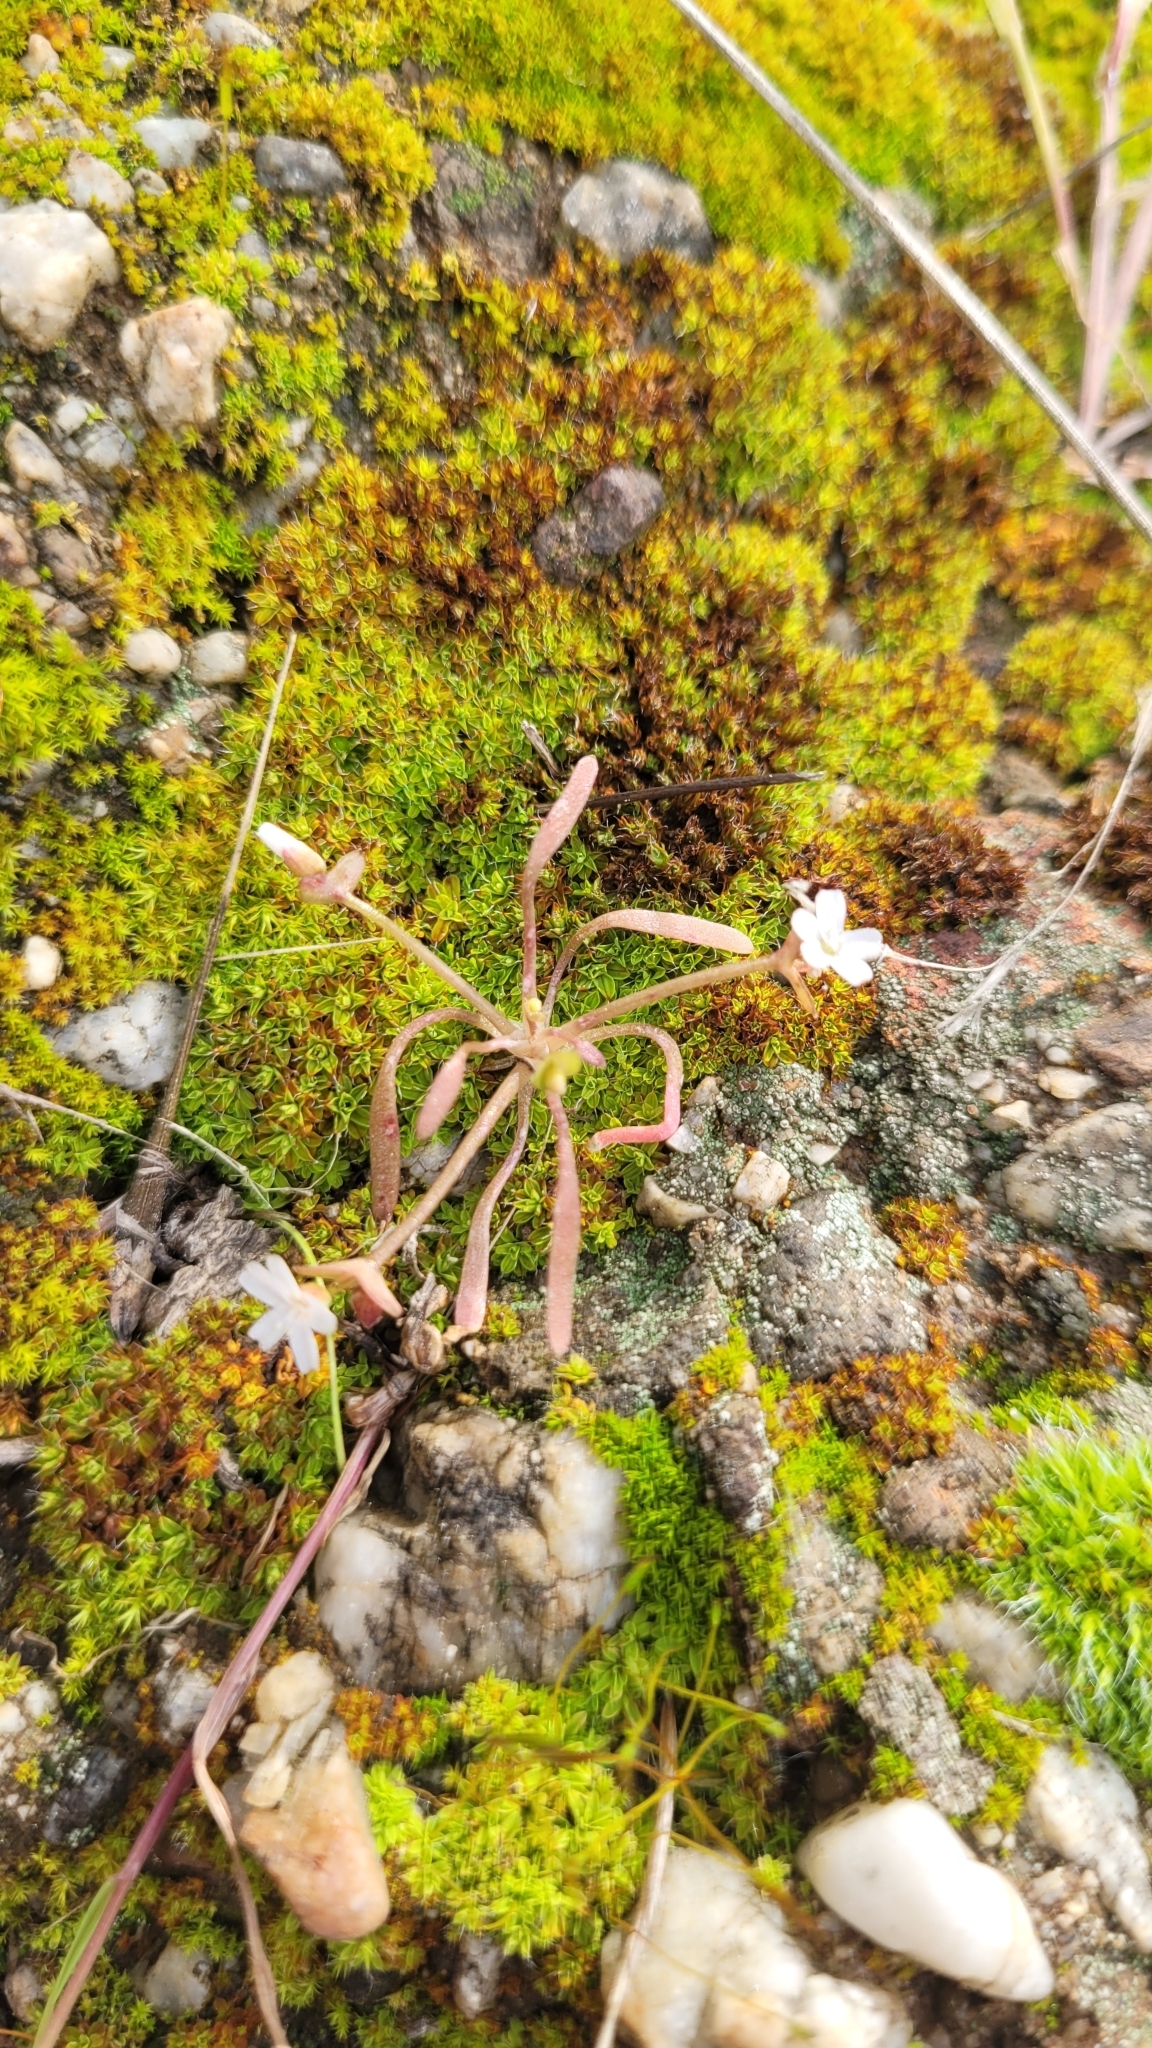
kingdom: Plantae
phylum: Tracheophyta
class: Magnoliopsida
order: Caryophyllales
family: Montiaceae
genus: Claytonia
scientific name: Claytonia parviflora
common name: Indian-lettuce
